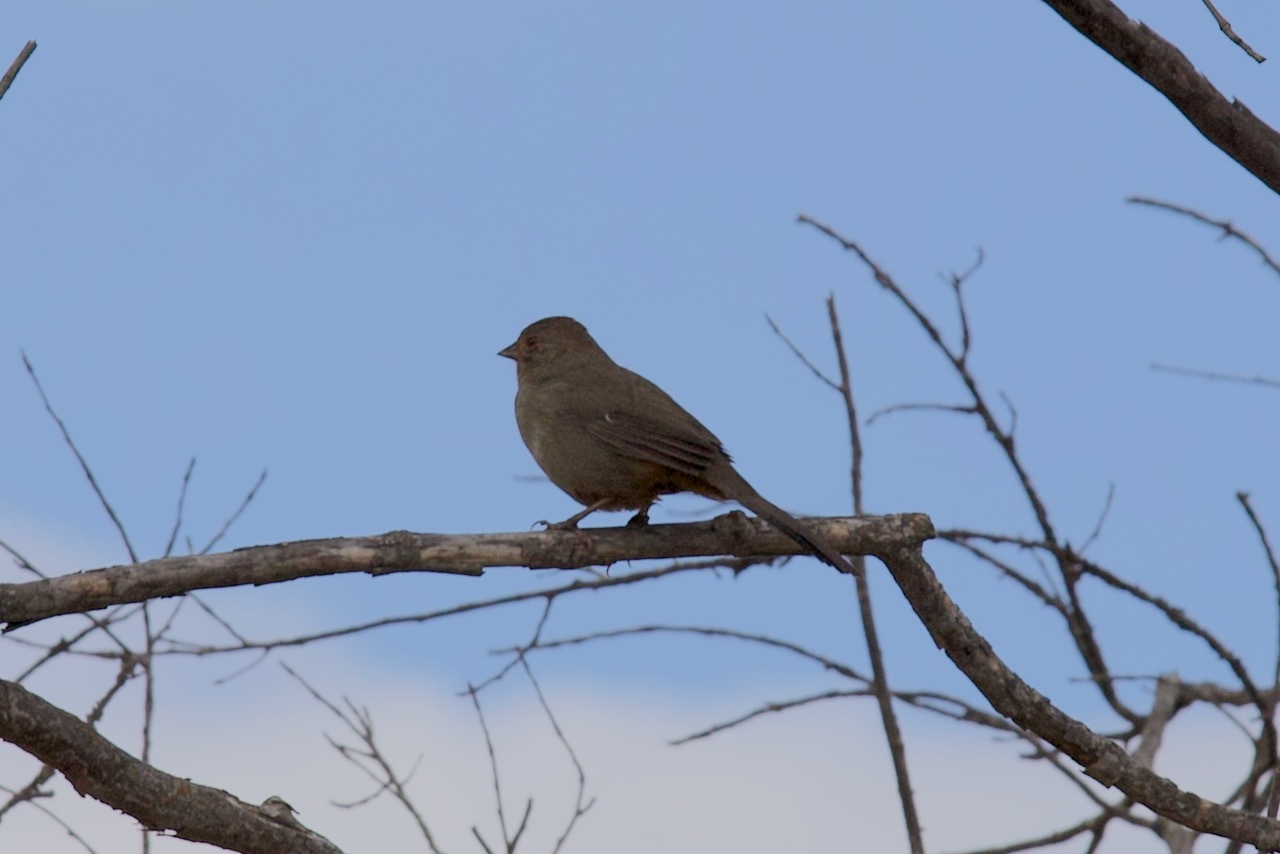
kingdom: Animalia
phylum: Chordata
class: Aves
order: Passeriformes
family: Passerellidae
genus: Melozone
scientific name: Melozone crissalis
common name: California towhee
